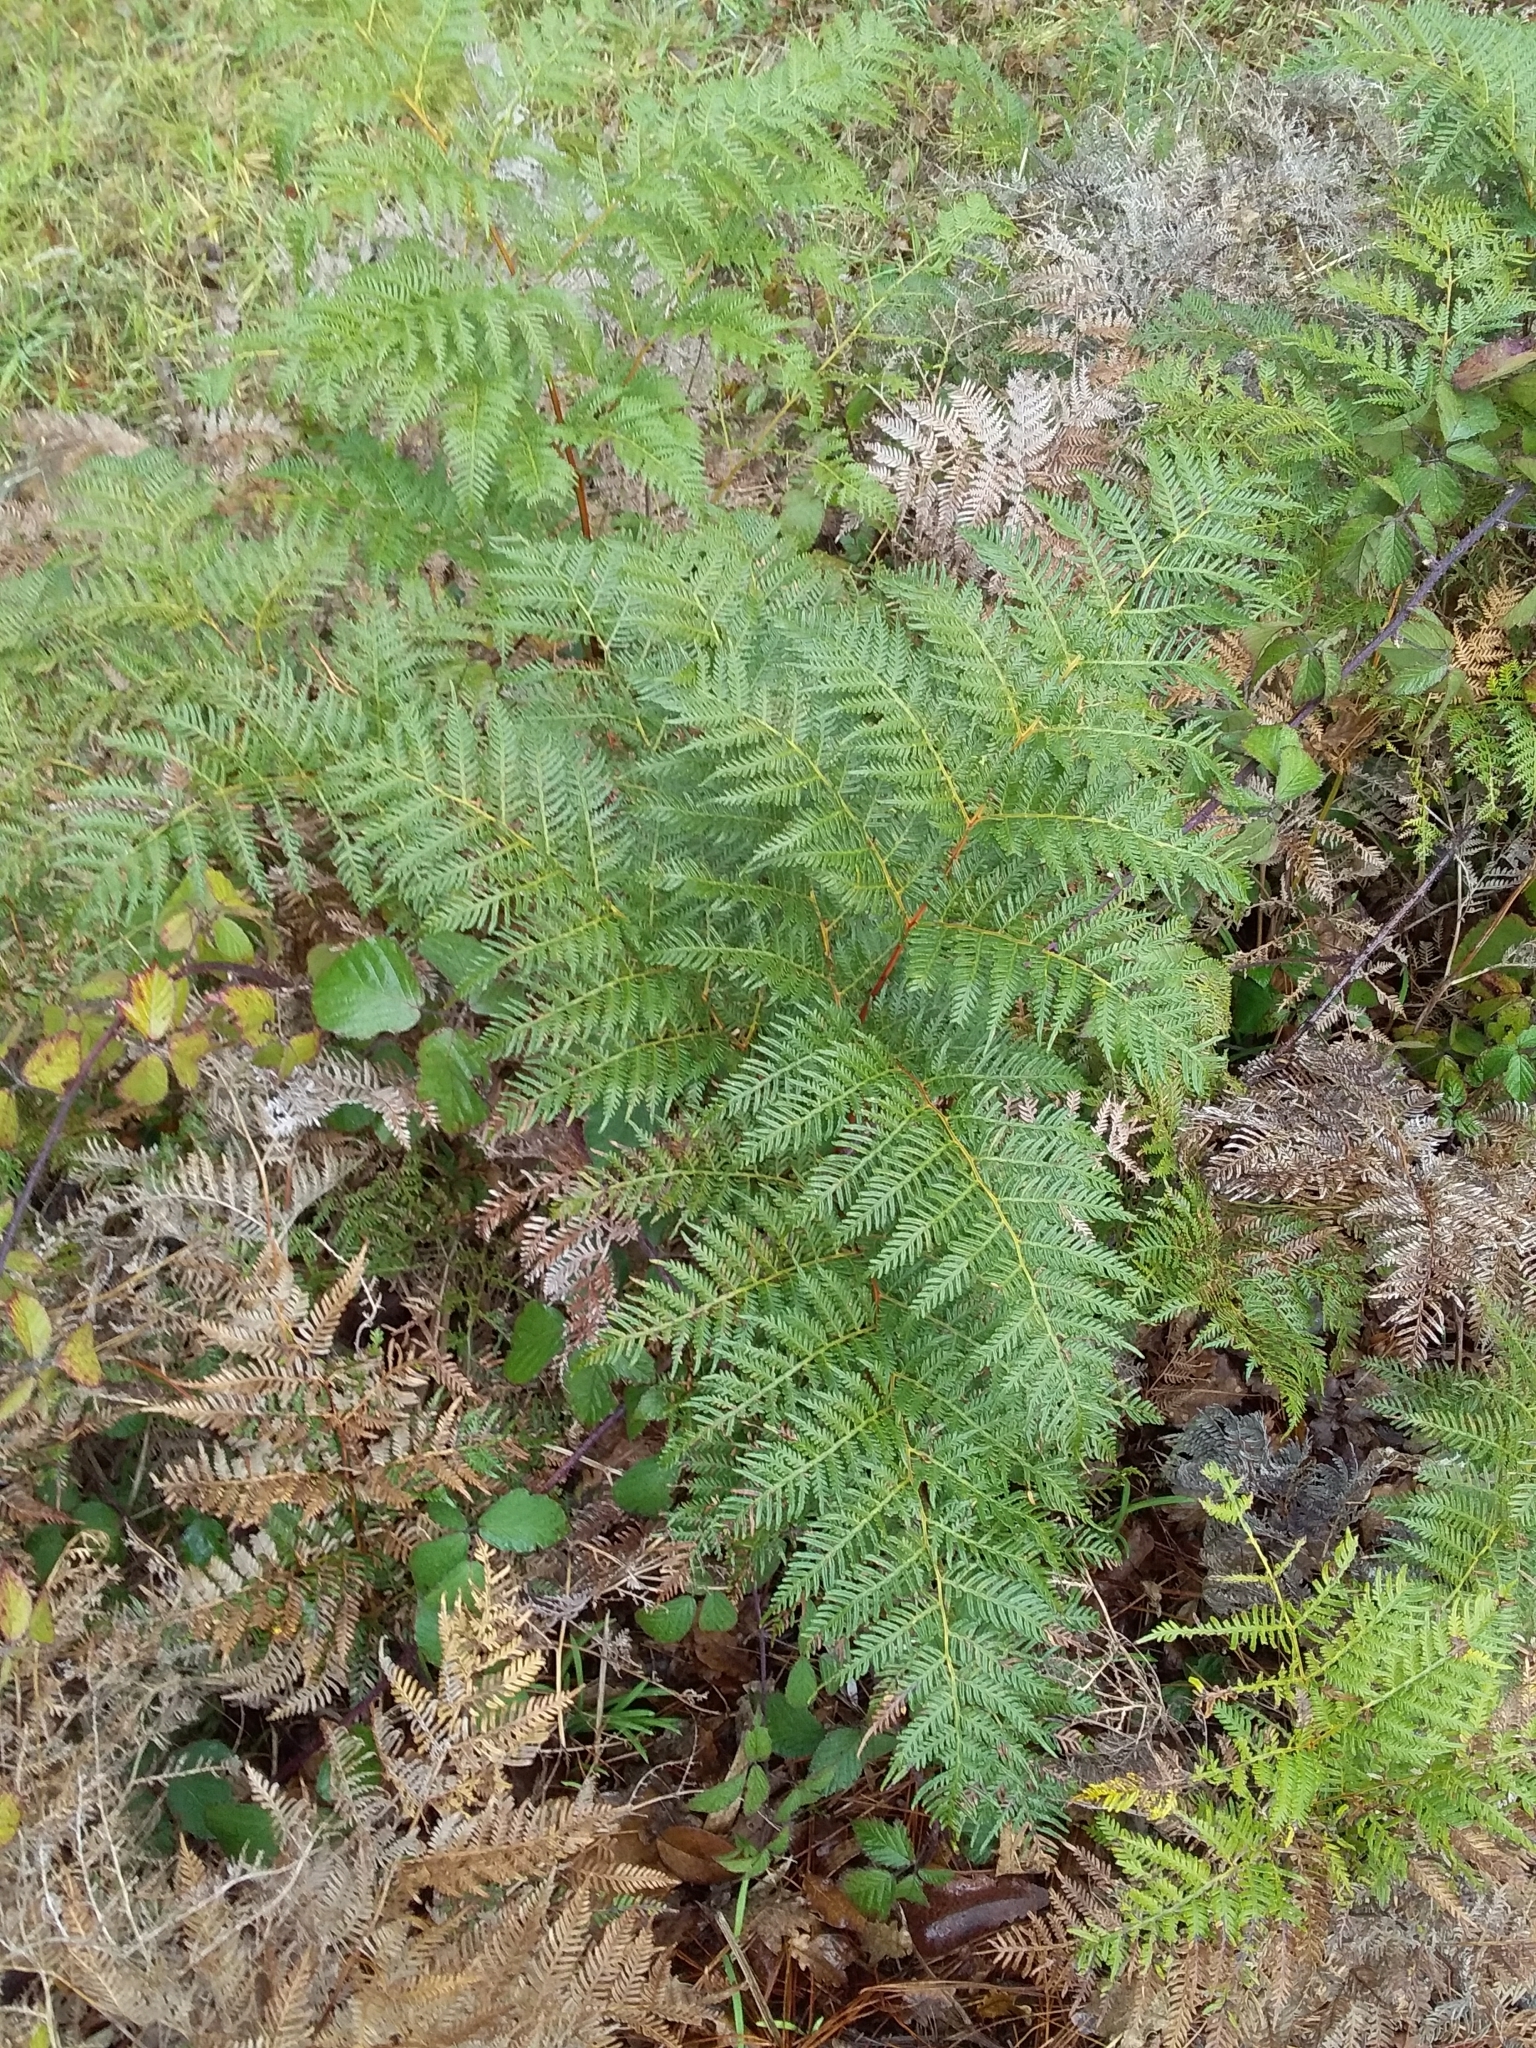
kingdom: Plantae
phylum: Tracheophyta
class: Polypodiopsida
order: Polypodiales
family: Dennstaedtiaceae
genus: Pteridium
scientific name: Pteridium esculentum
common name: Bracken fern
